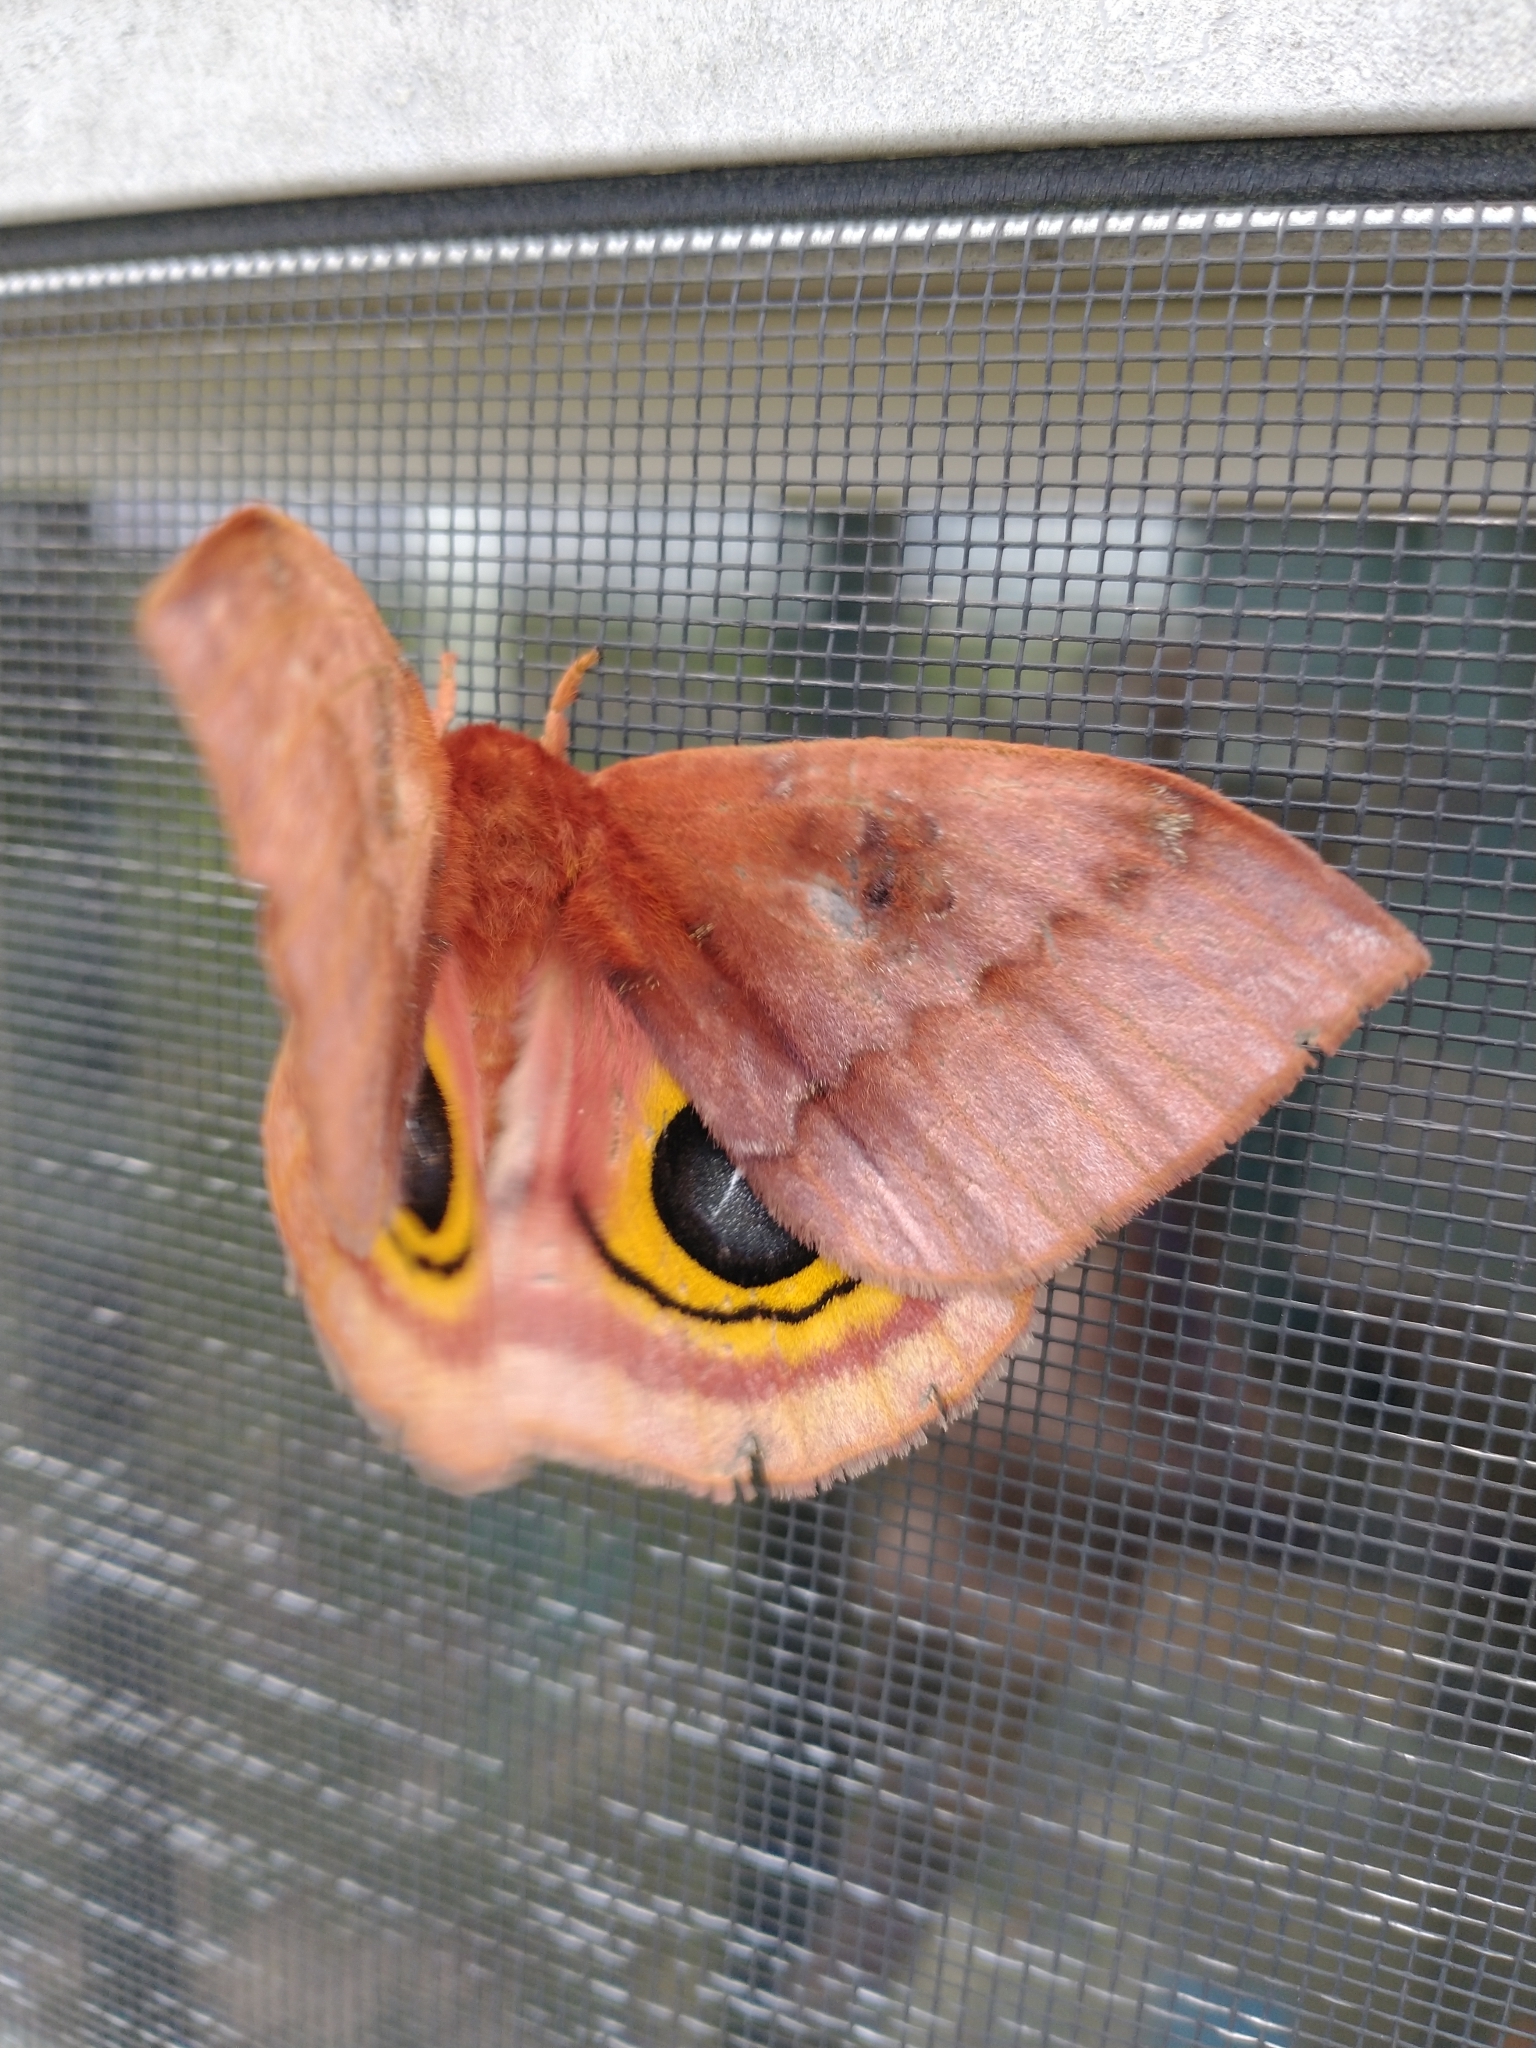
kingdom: Animalia
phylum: Arthropoda
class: Insecta
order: Lepidoptera
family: Saturniidae
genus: Automeris
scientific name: Automeris io
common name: Io moth
